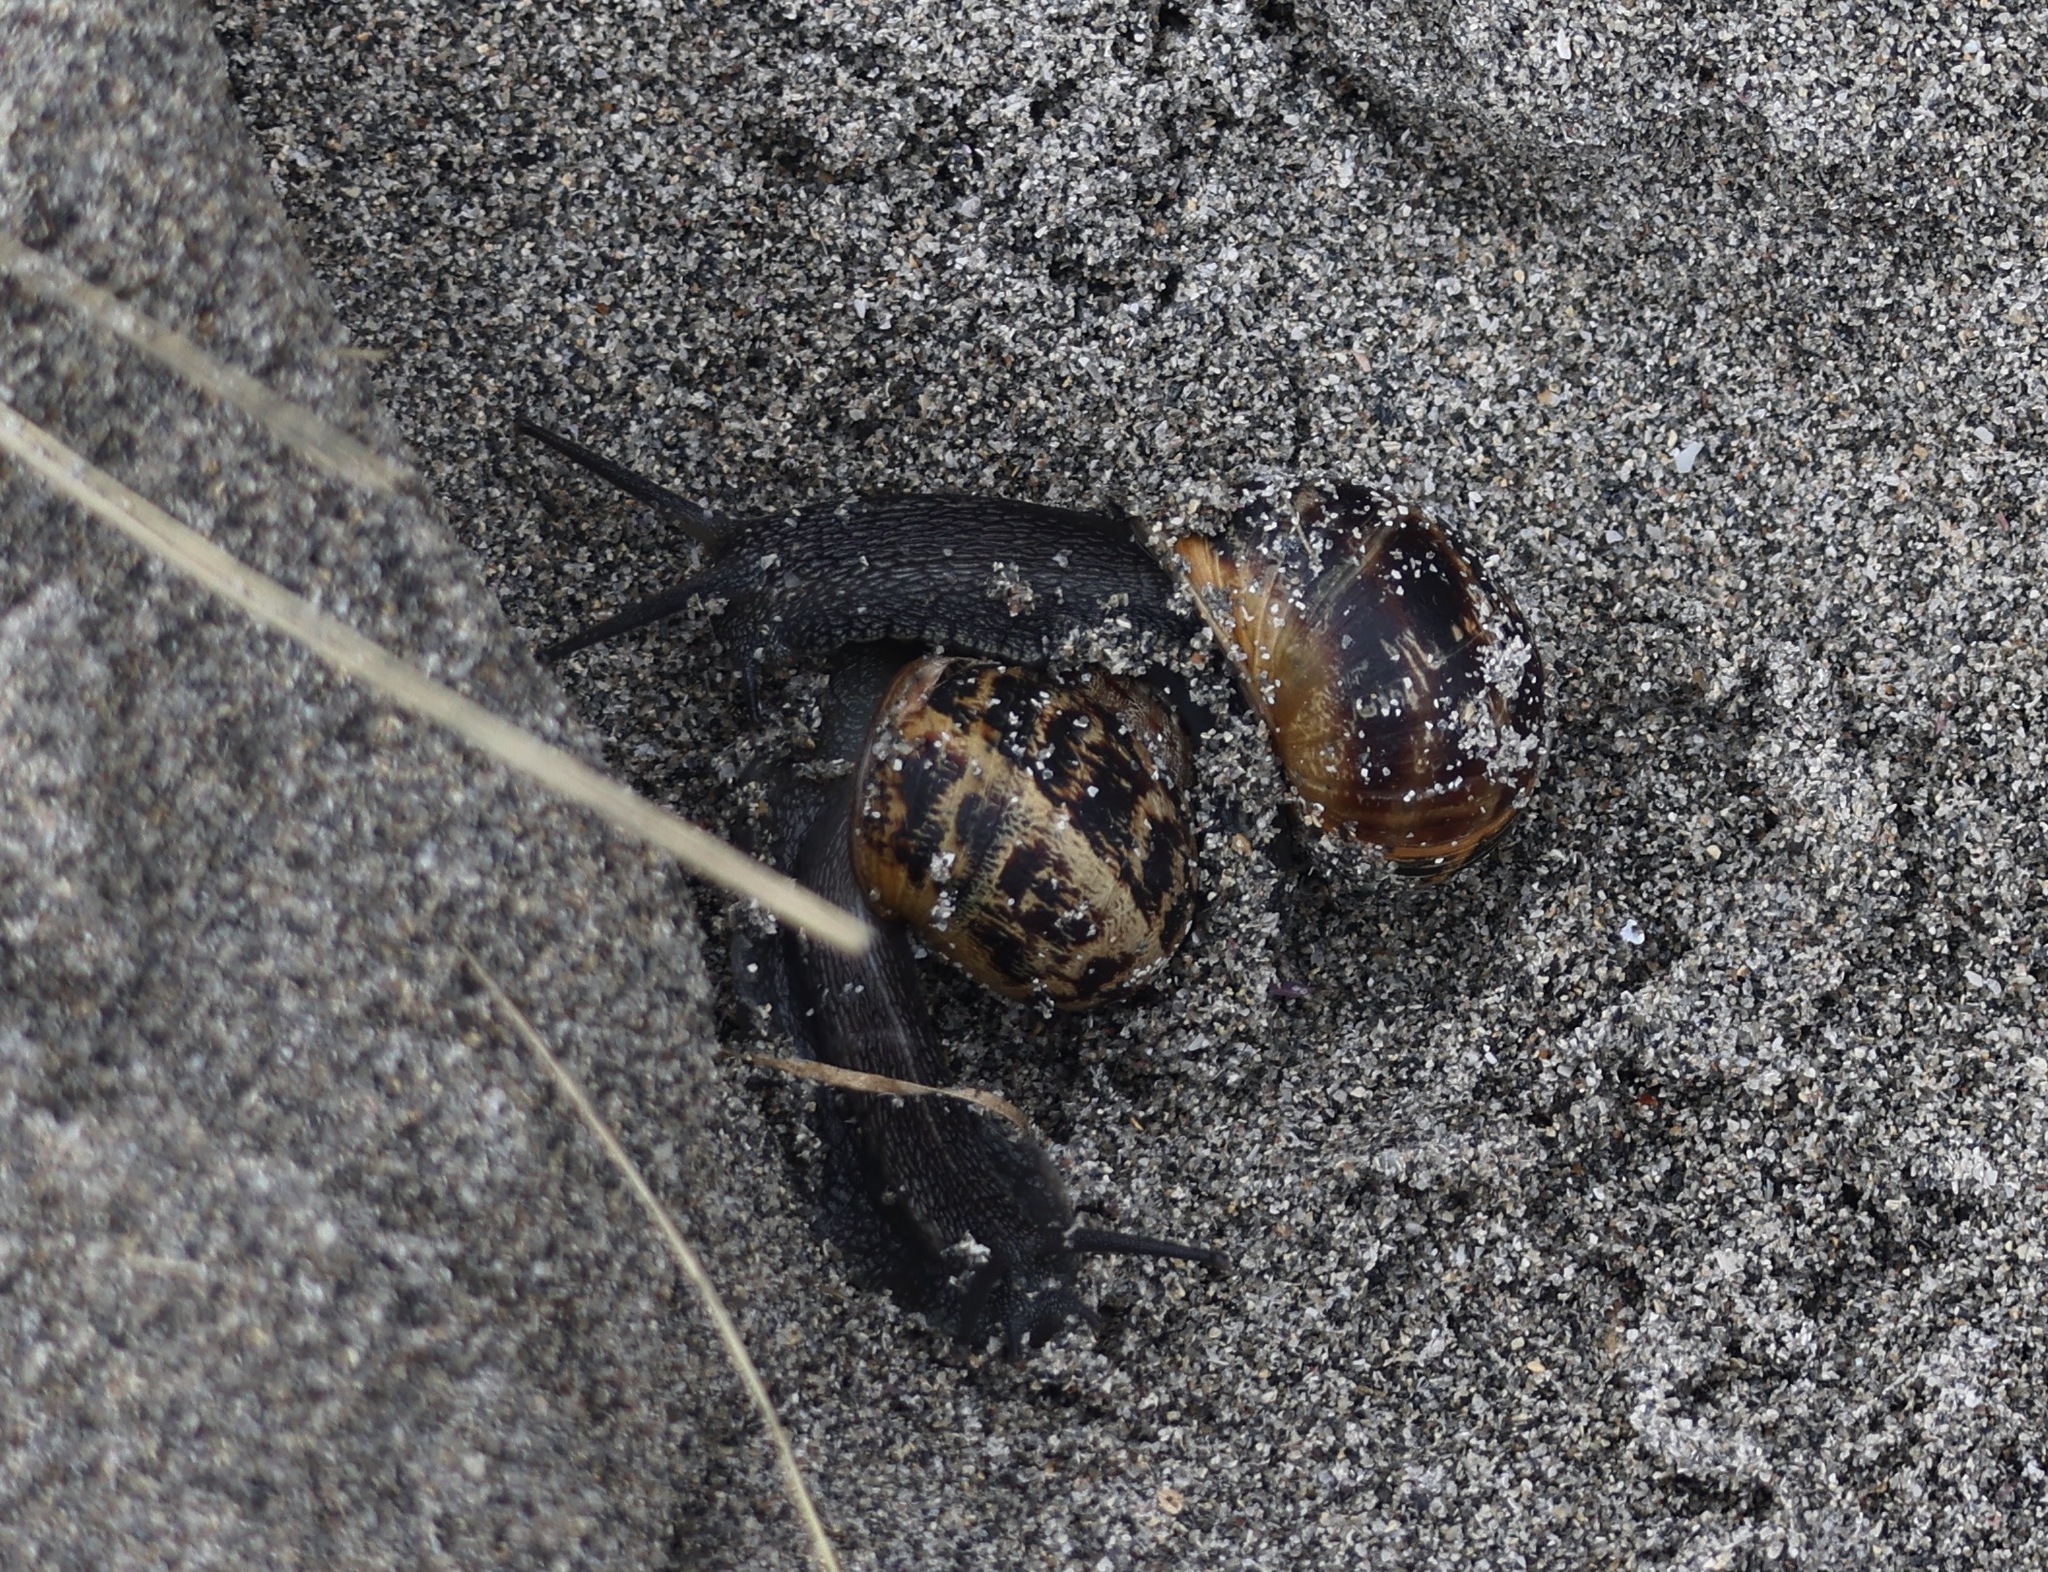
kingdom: Animalia
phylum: Mollusca
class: Gastropoda
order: Stylommatophora
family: Helicidae
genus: Cornu
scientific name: Cornu aspersum
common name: Brown garden snail
